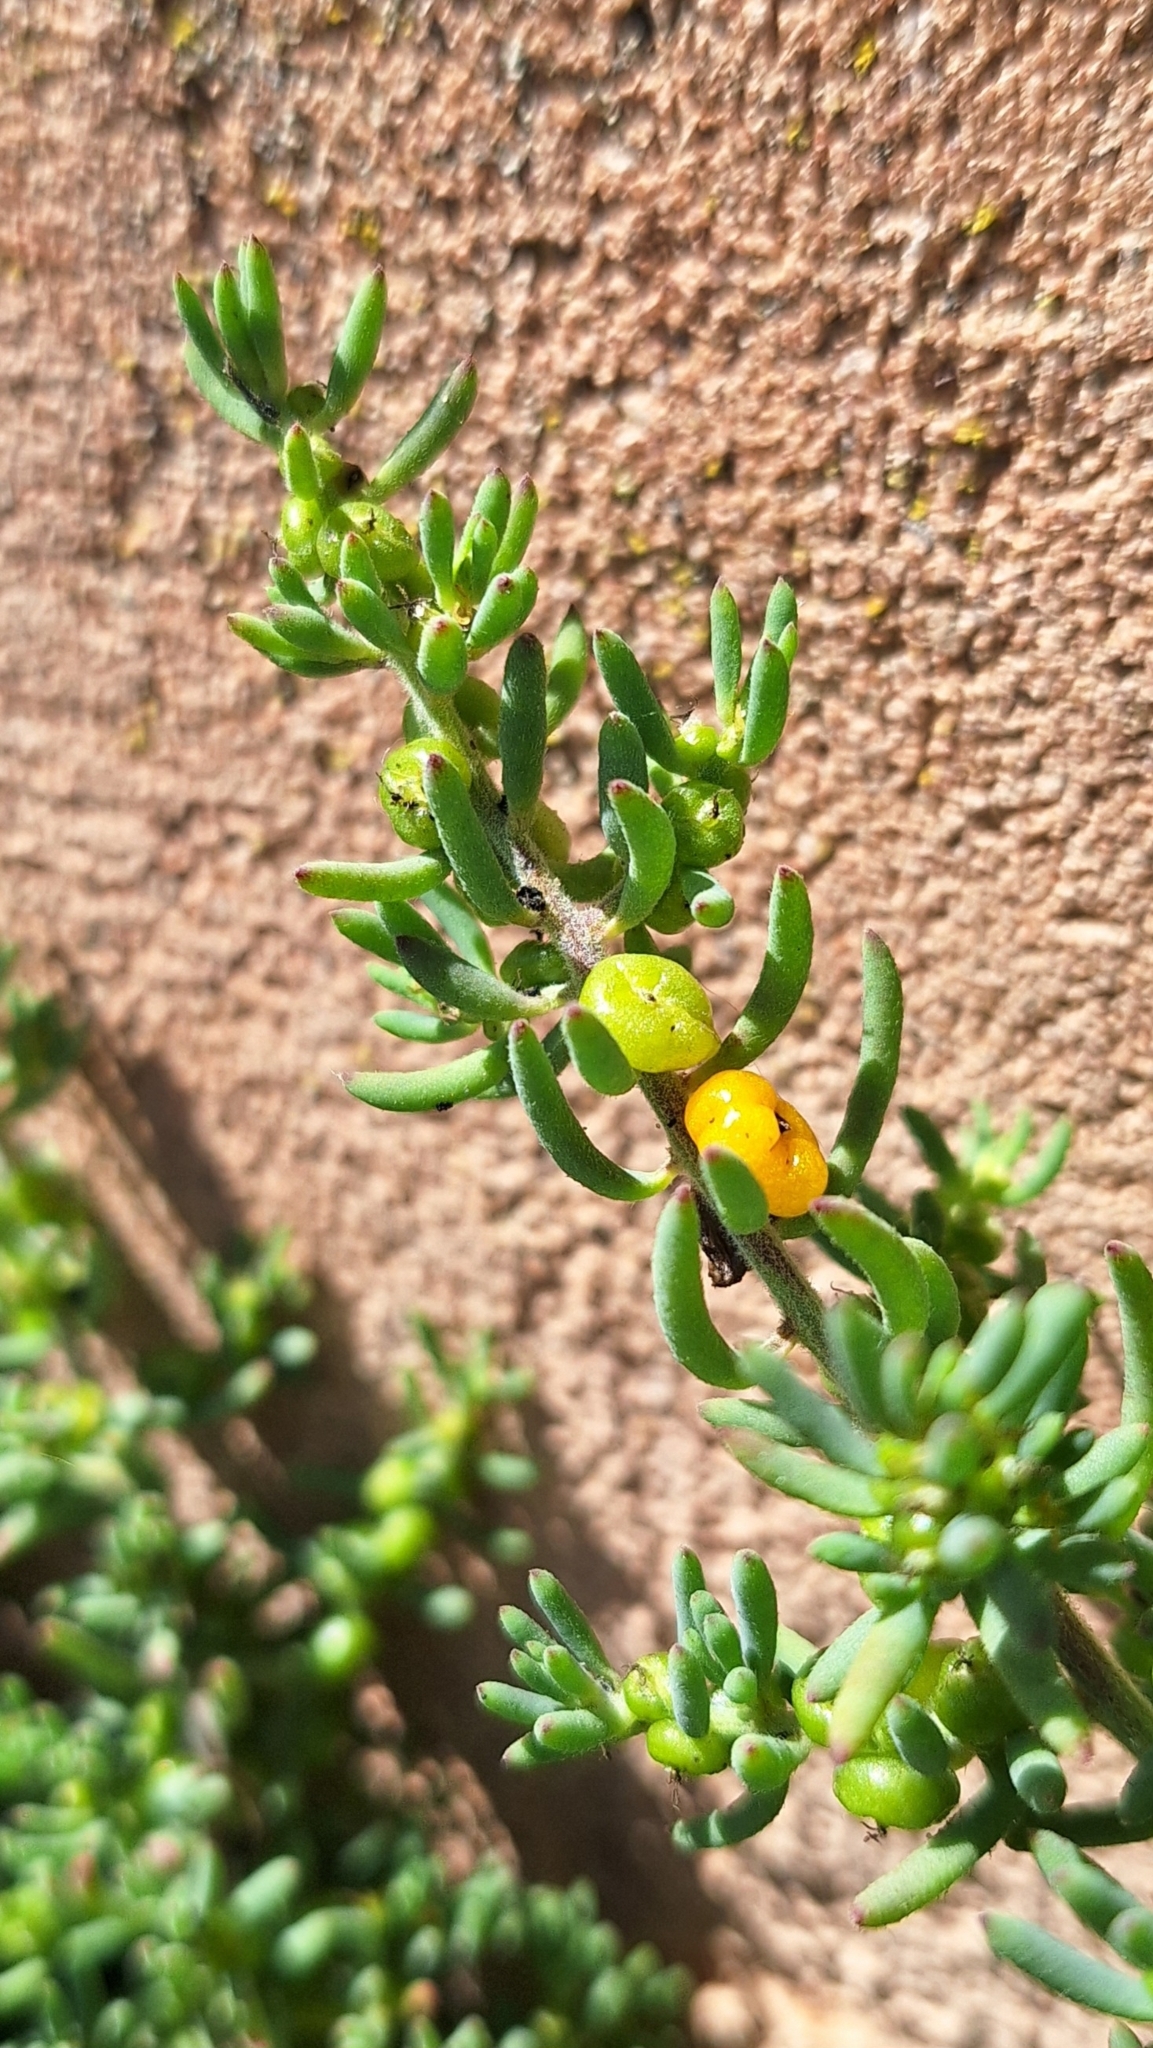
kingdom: Plantae
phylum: Tracheophyta
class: Magnoliopsida
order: Caryophyllales
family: Amaranthaceae
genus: Enchylaena
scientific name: Enchylaena tomentosa
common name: Ruby saltbush
